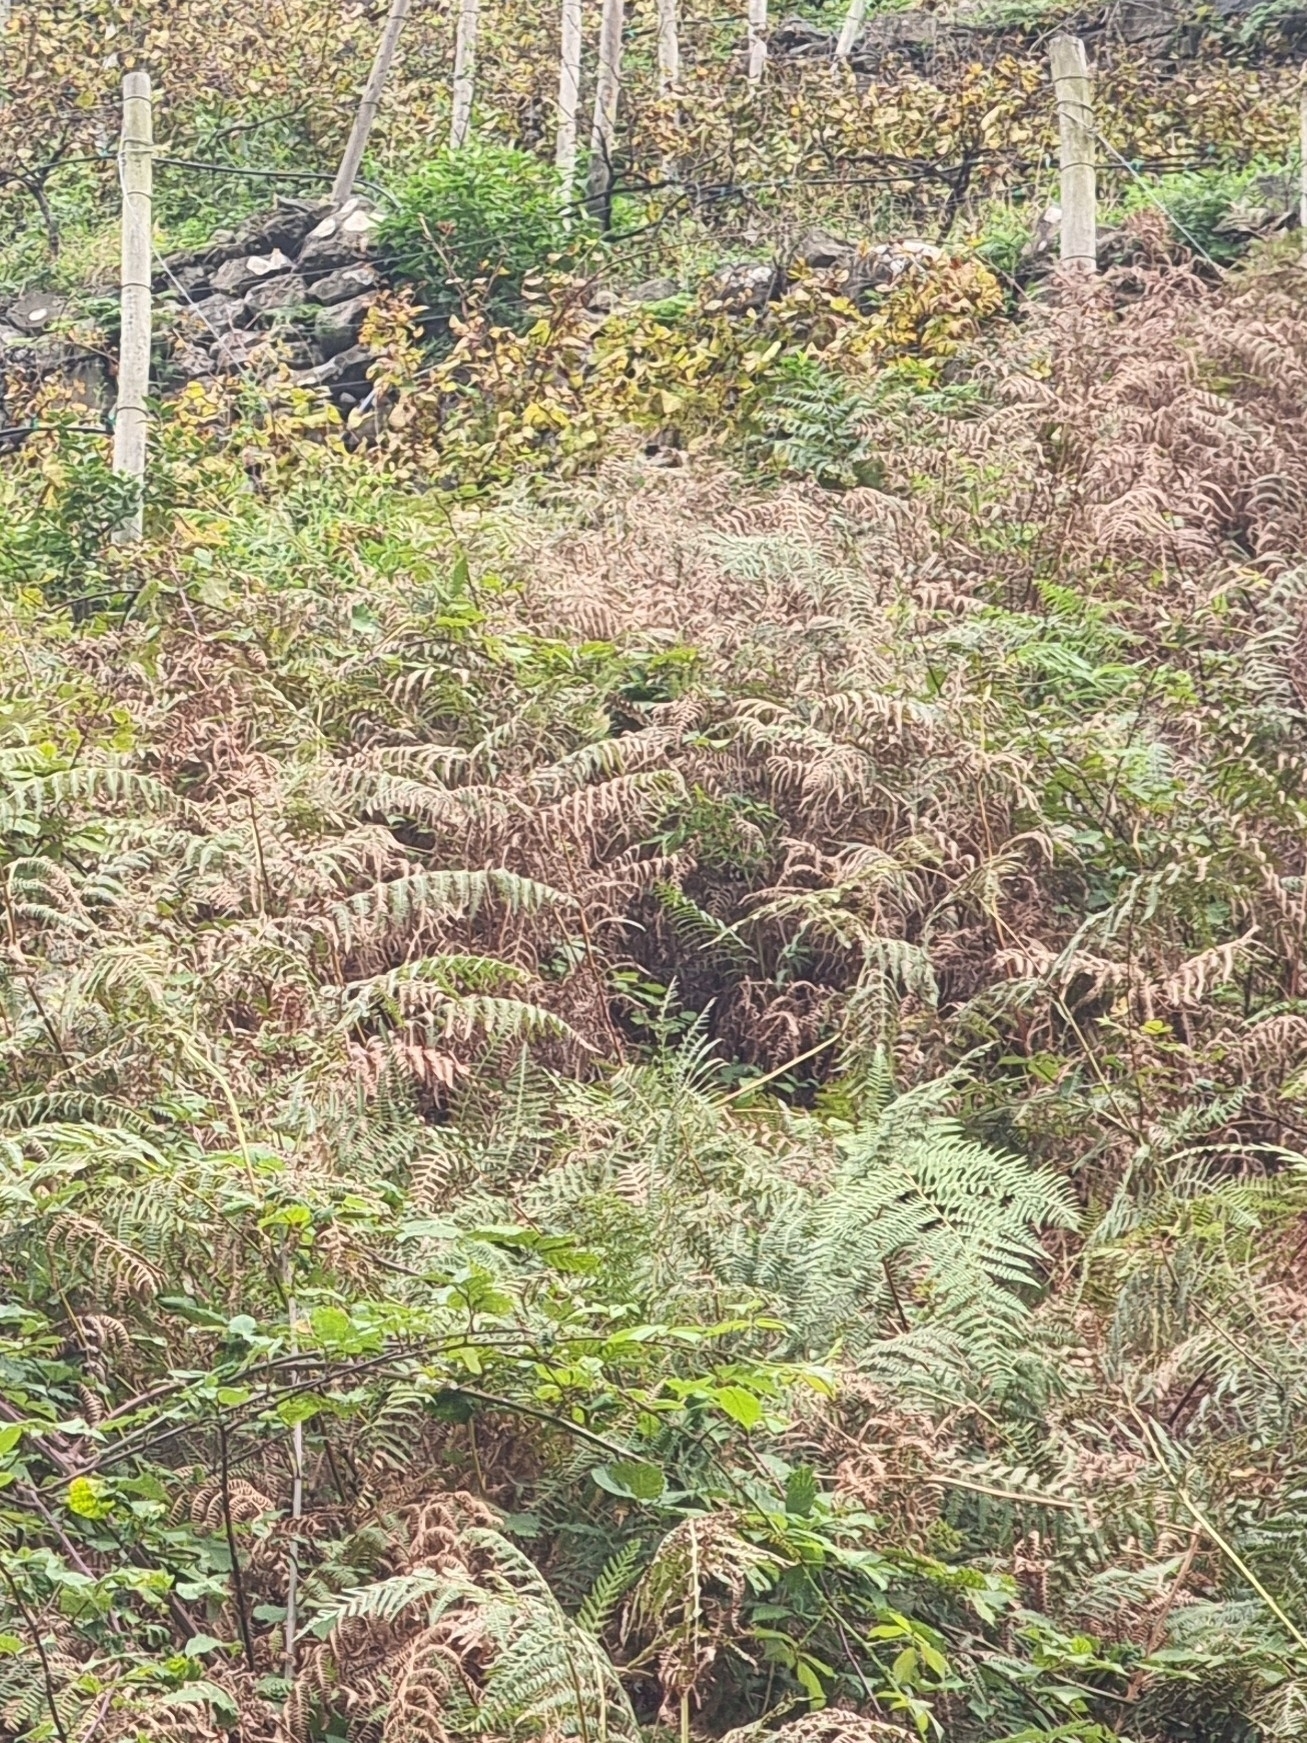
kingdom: Plantae
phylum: Tracheophyta
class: Polypodiopsida
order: Polypodiales
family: Dennstaedtiaceae
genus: Pteridium
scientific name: Pteridium aquilinum
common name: Bracken
